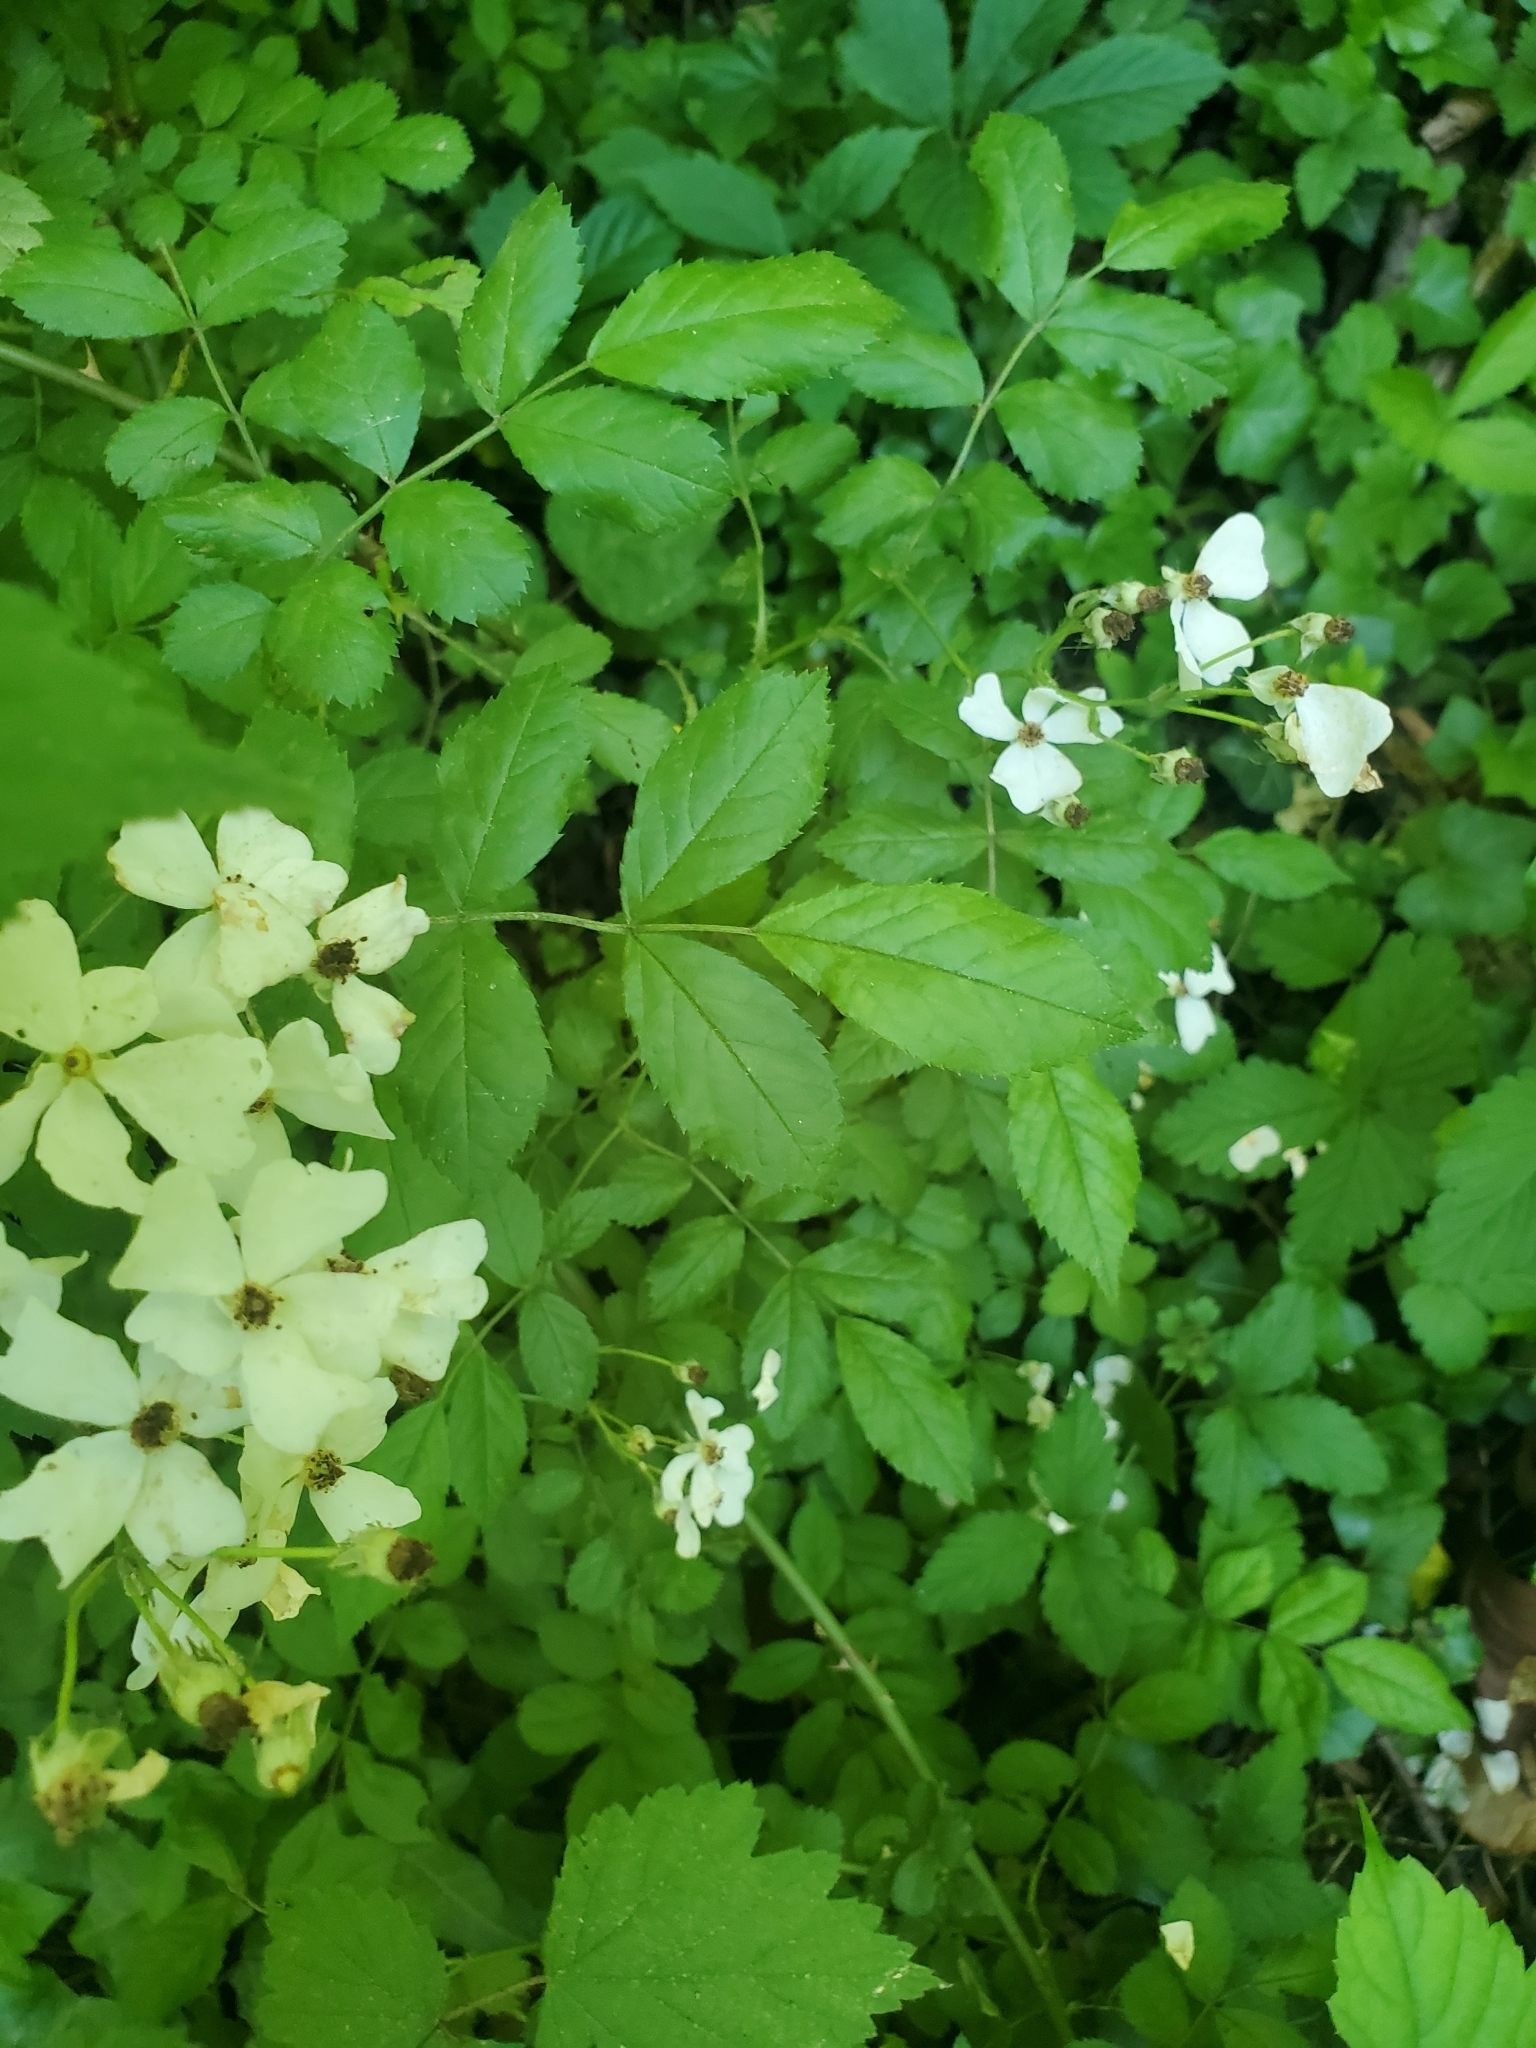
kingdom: Plantae
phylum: Tracheophyta
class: Magnoliopsida
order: Rosales
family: Rosaceae
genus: Rosa
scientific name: Rosa multiflora
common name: Multiflora rose
